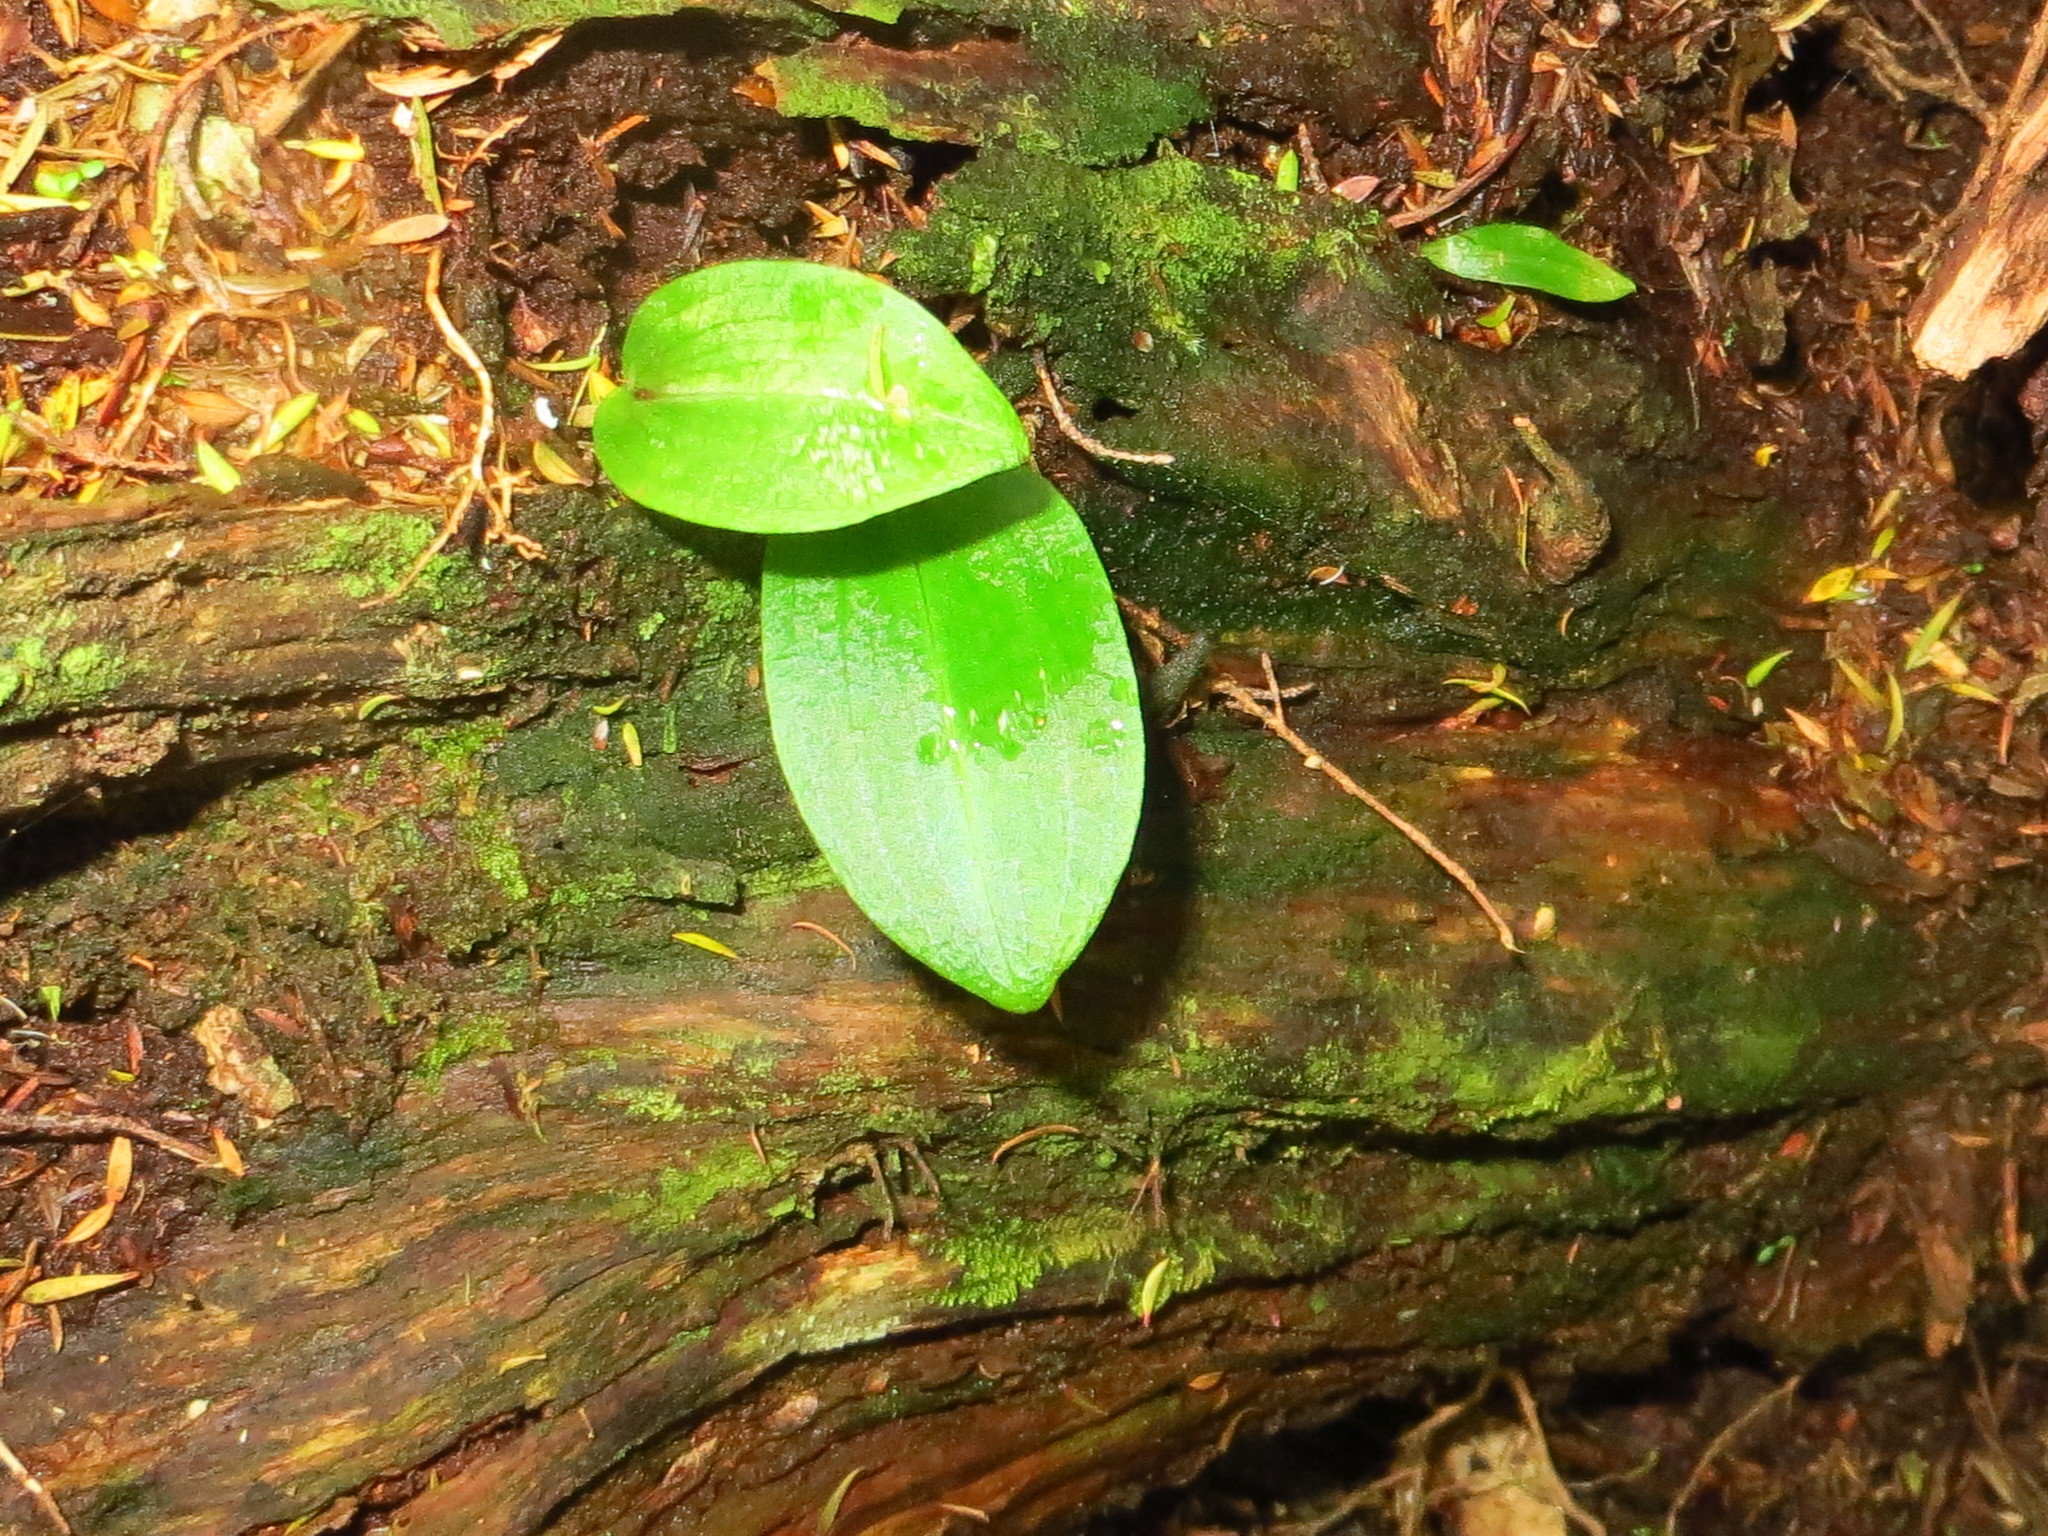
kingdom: Plantae
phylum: Tracheophyta
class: Liliopsida
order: Asparagales
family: Orchidaceae
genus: Chiloglottis
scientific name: Chiloglottis cornuta
